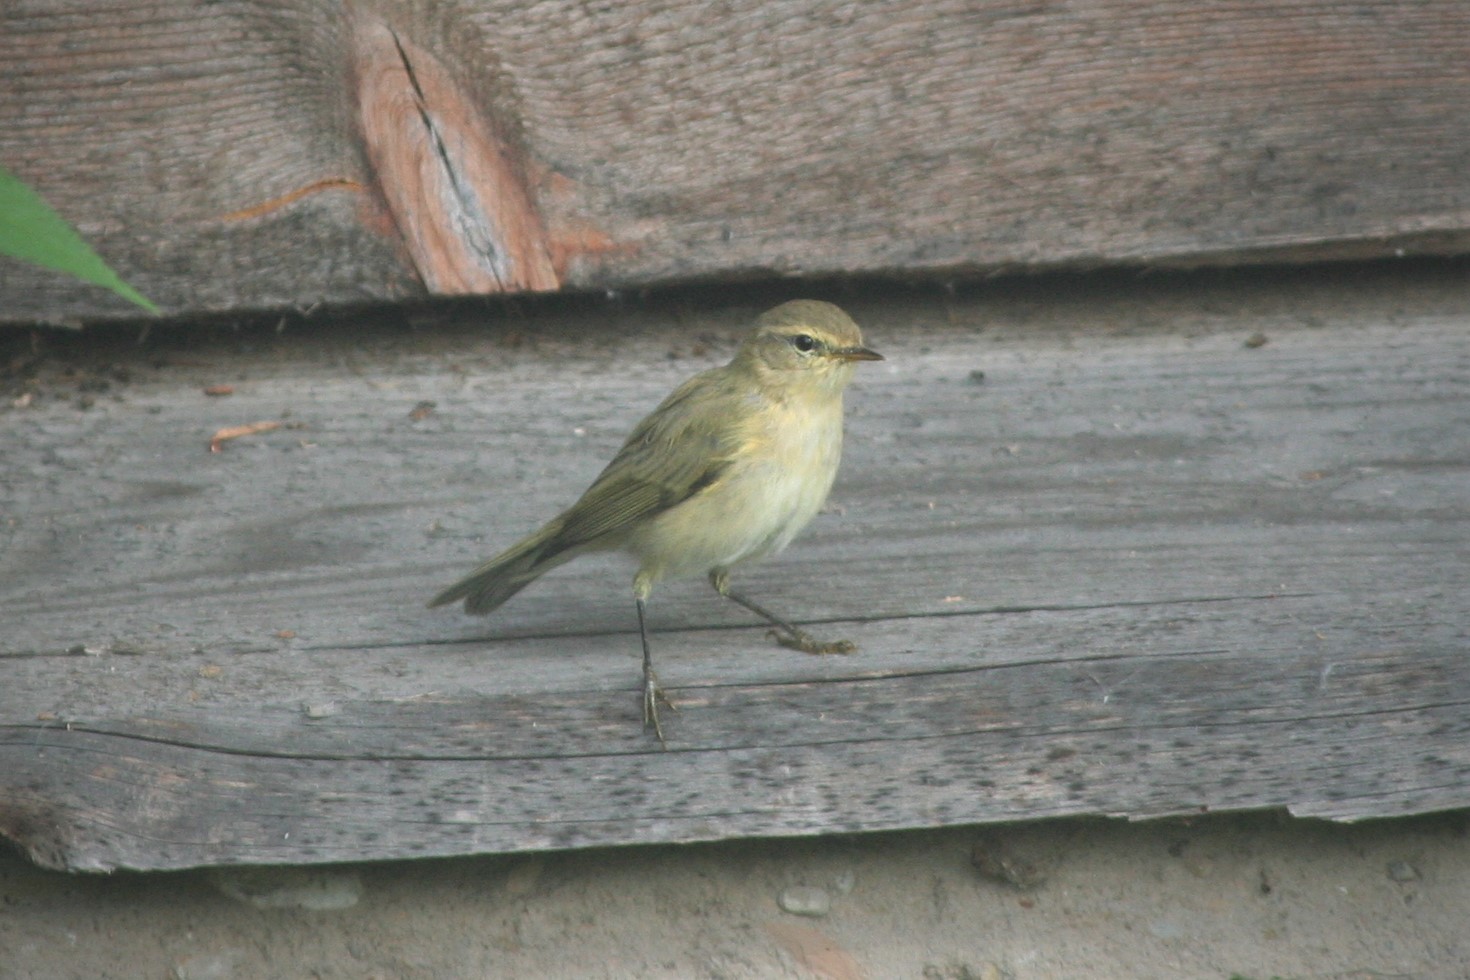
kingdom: Animalia
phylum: Chordata
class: Aves
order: Passeriformes
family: Phylloscopidae
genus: Phylloscopus
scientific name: Phylloscopus collybita
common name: Common chiffchaff
